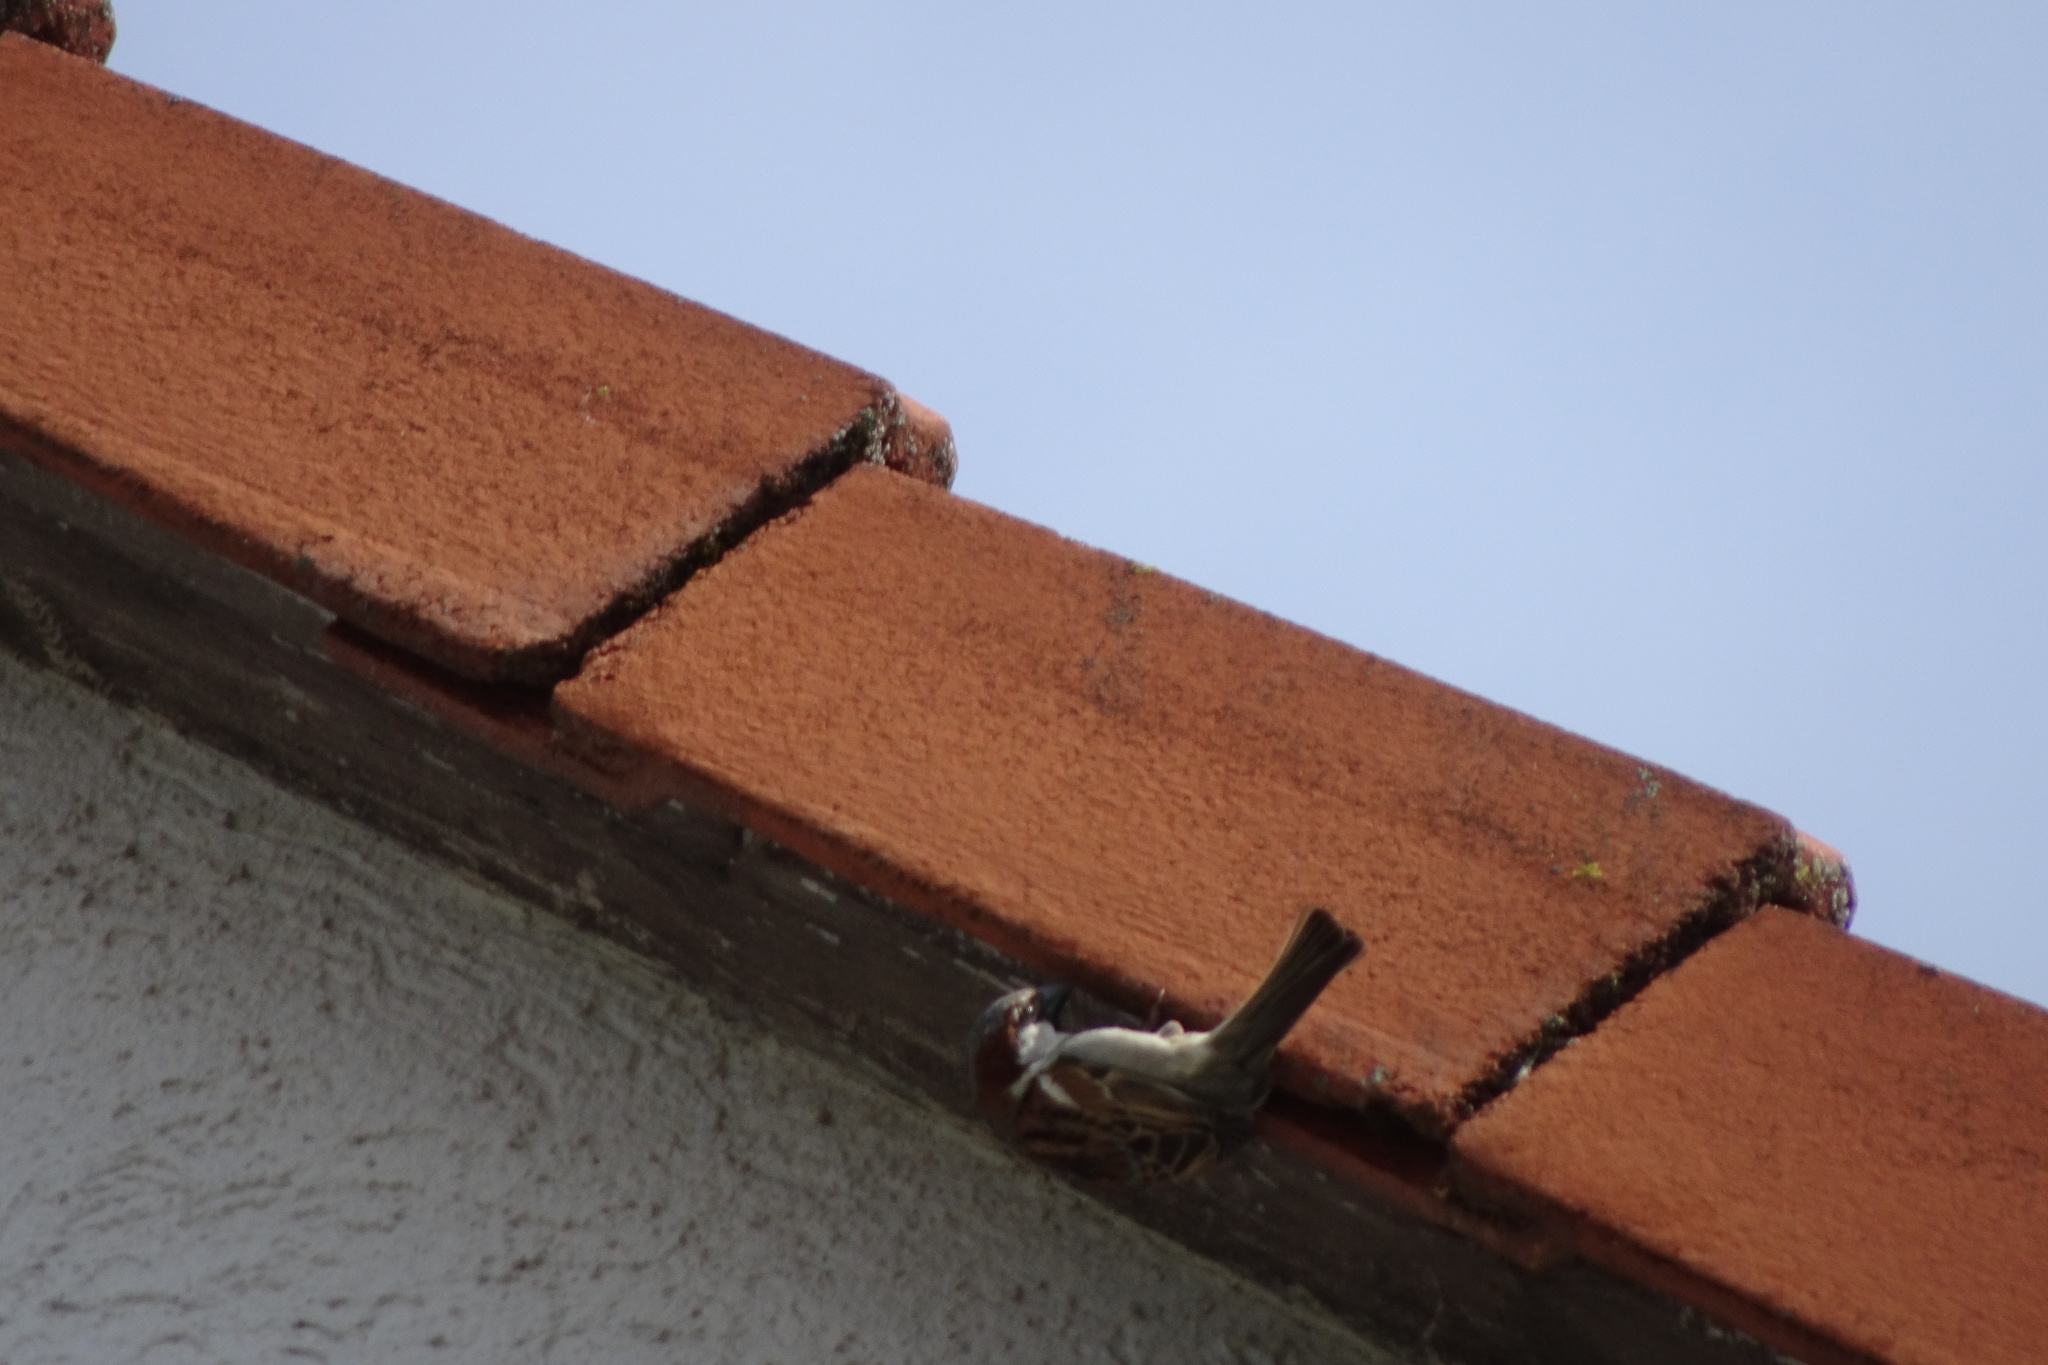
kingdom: Animalia
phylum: Chordata
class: Aves
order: Passeriformes
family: Passeridae
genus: Passer
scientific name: Passer domesticus
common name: House sparrow
